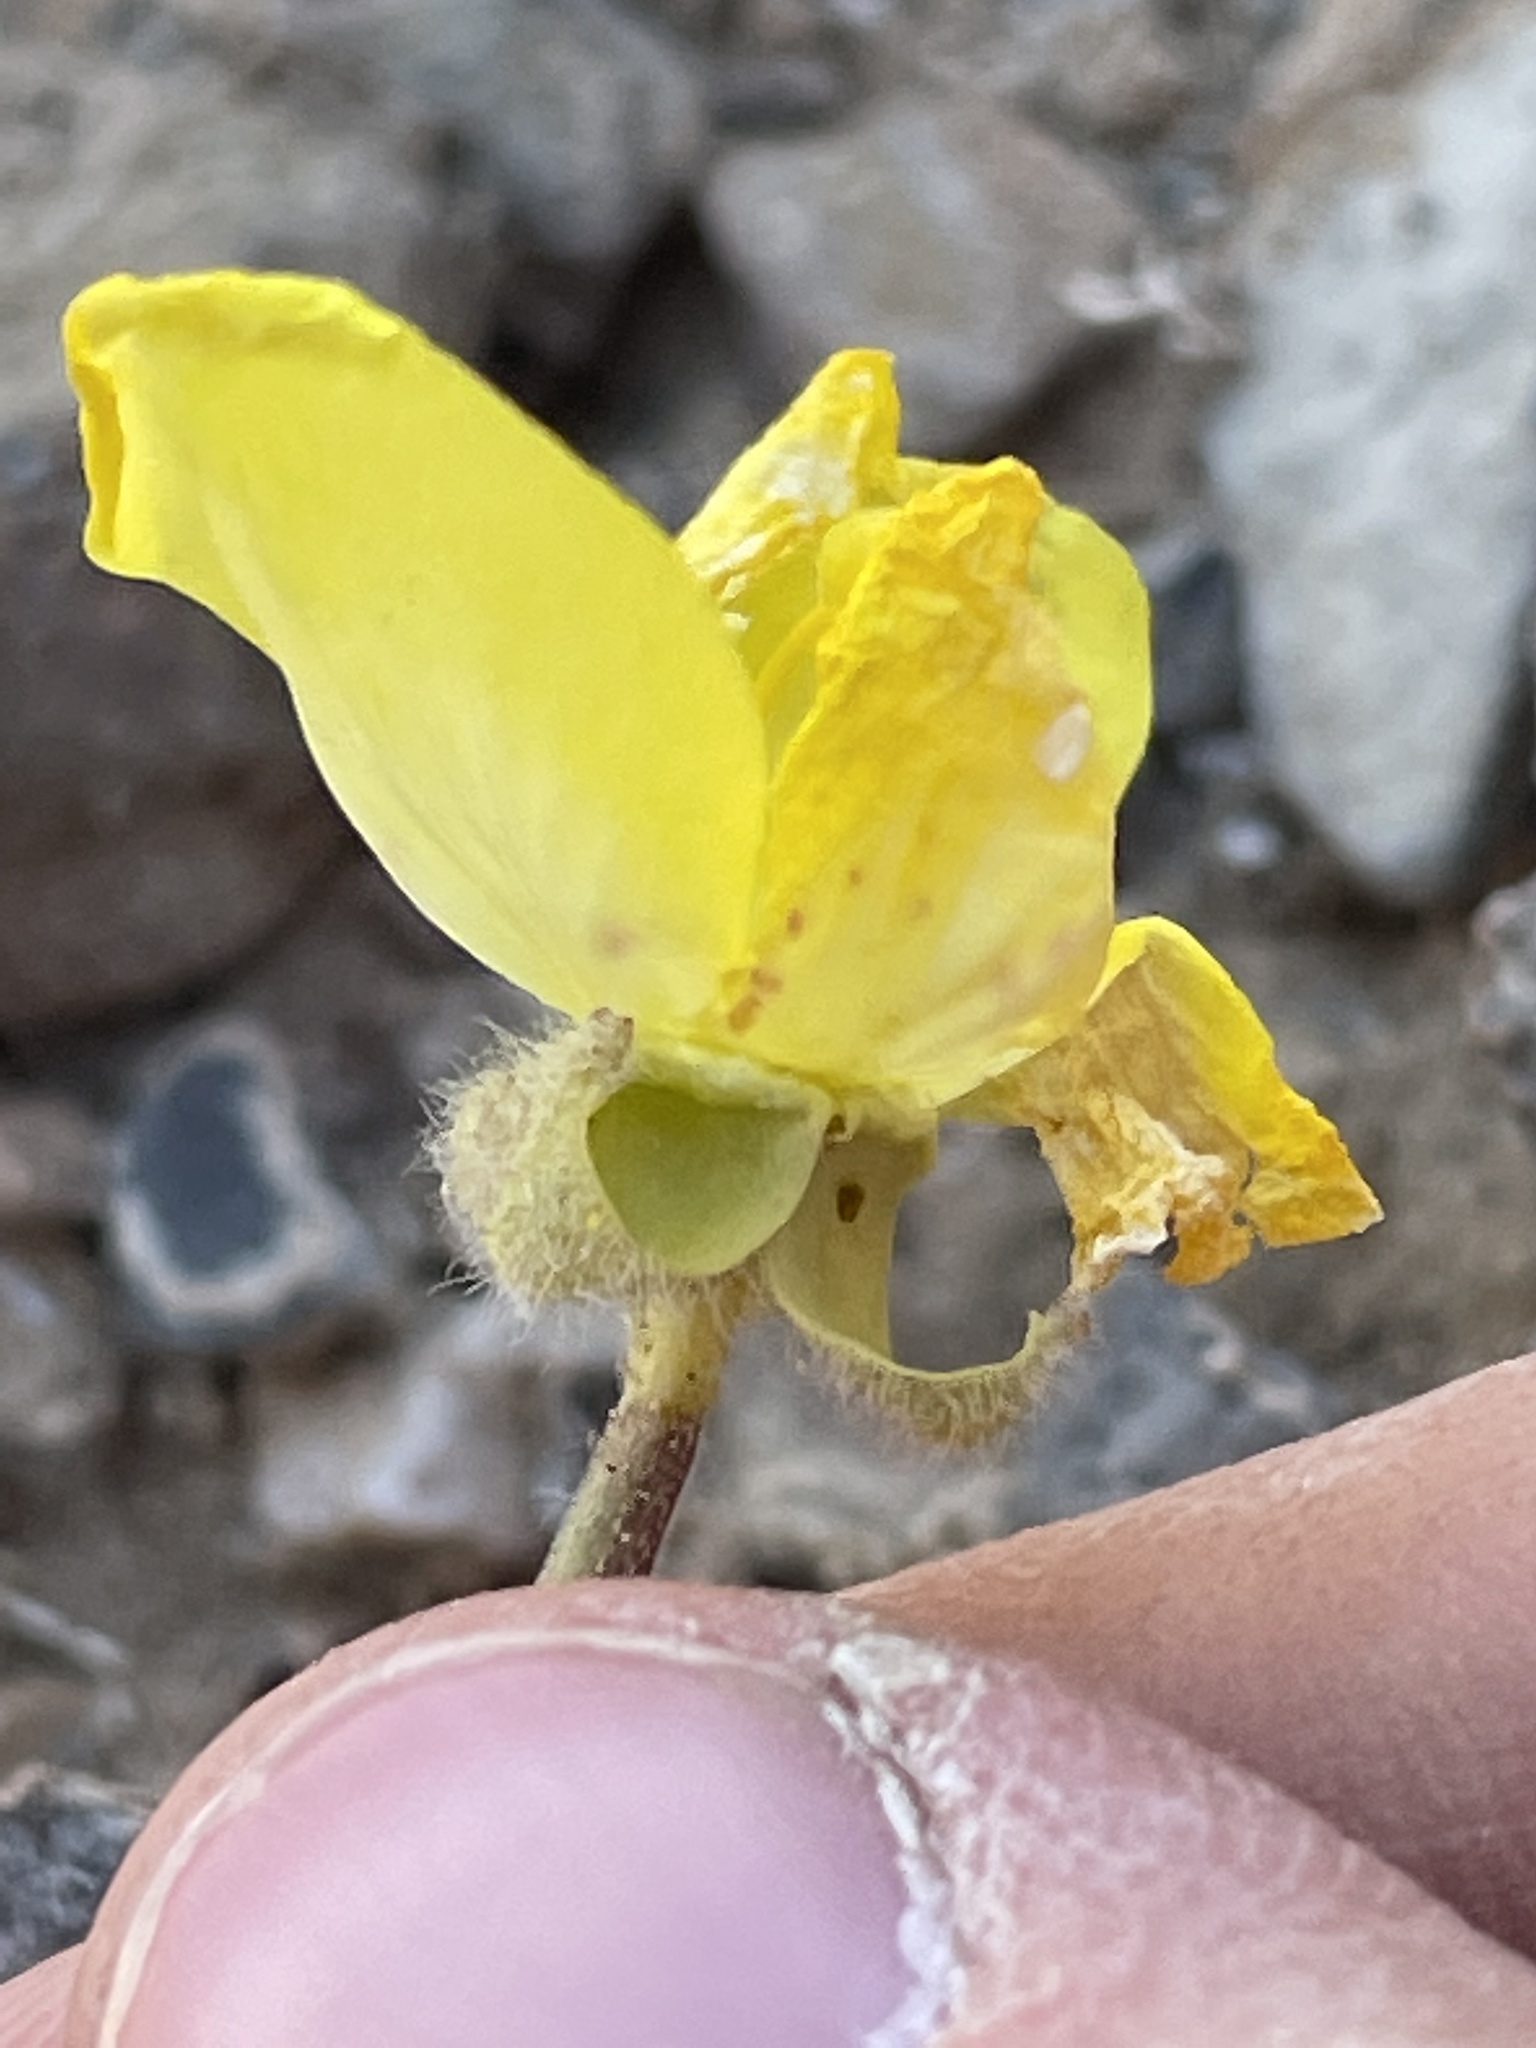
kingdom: Plantae
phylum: Tracheophyta
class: Magnoliopsida
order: Myrtales
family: Onagraceae
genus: Chylismia
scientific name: Chylismia brevipes
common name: Yellow cups
